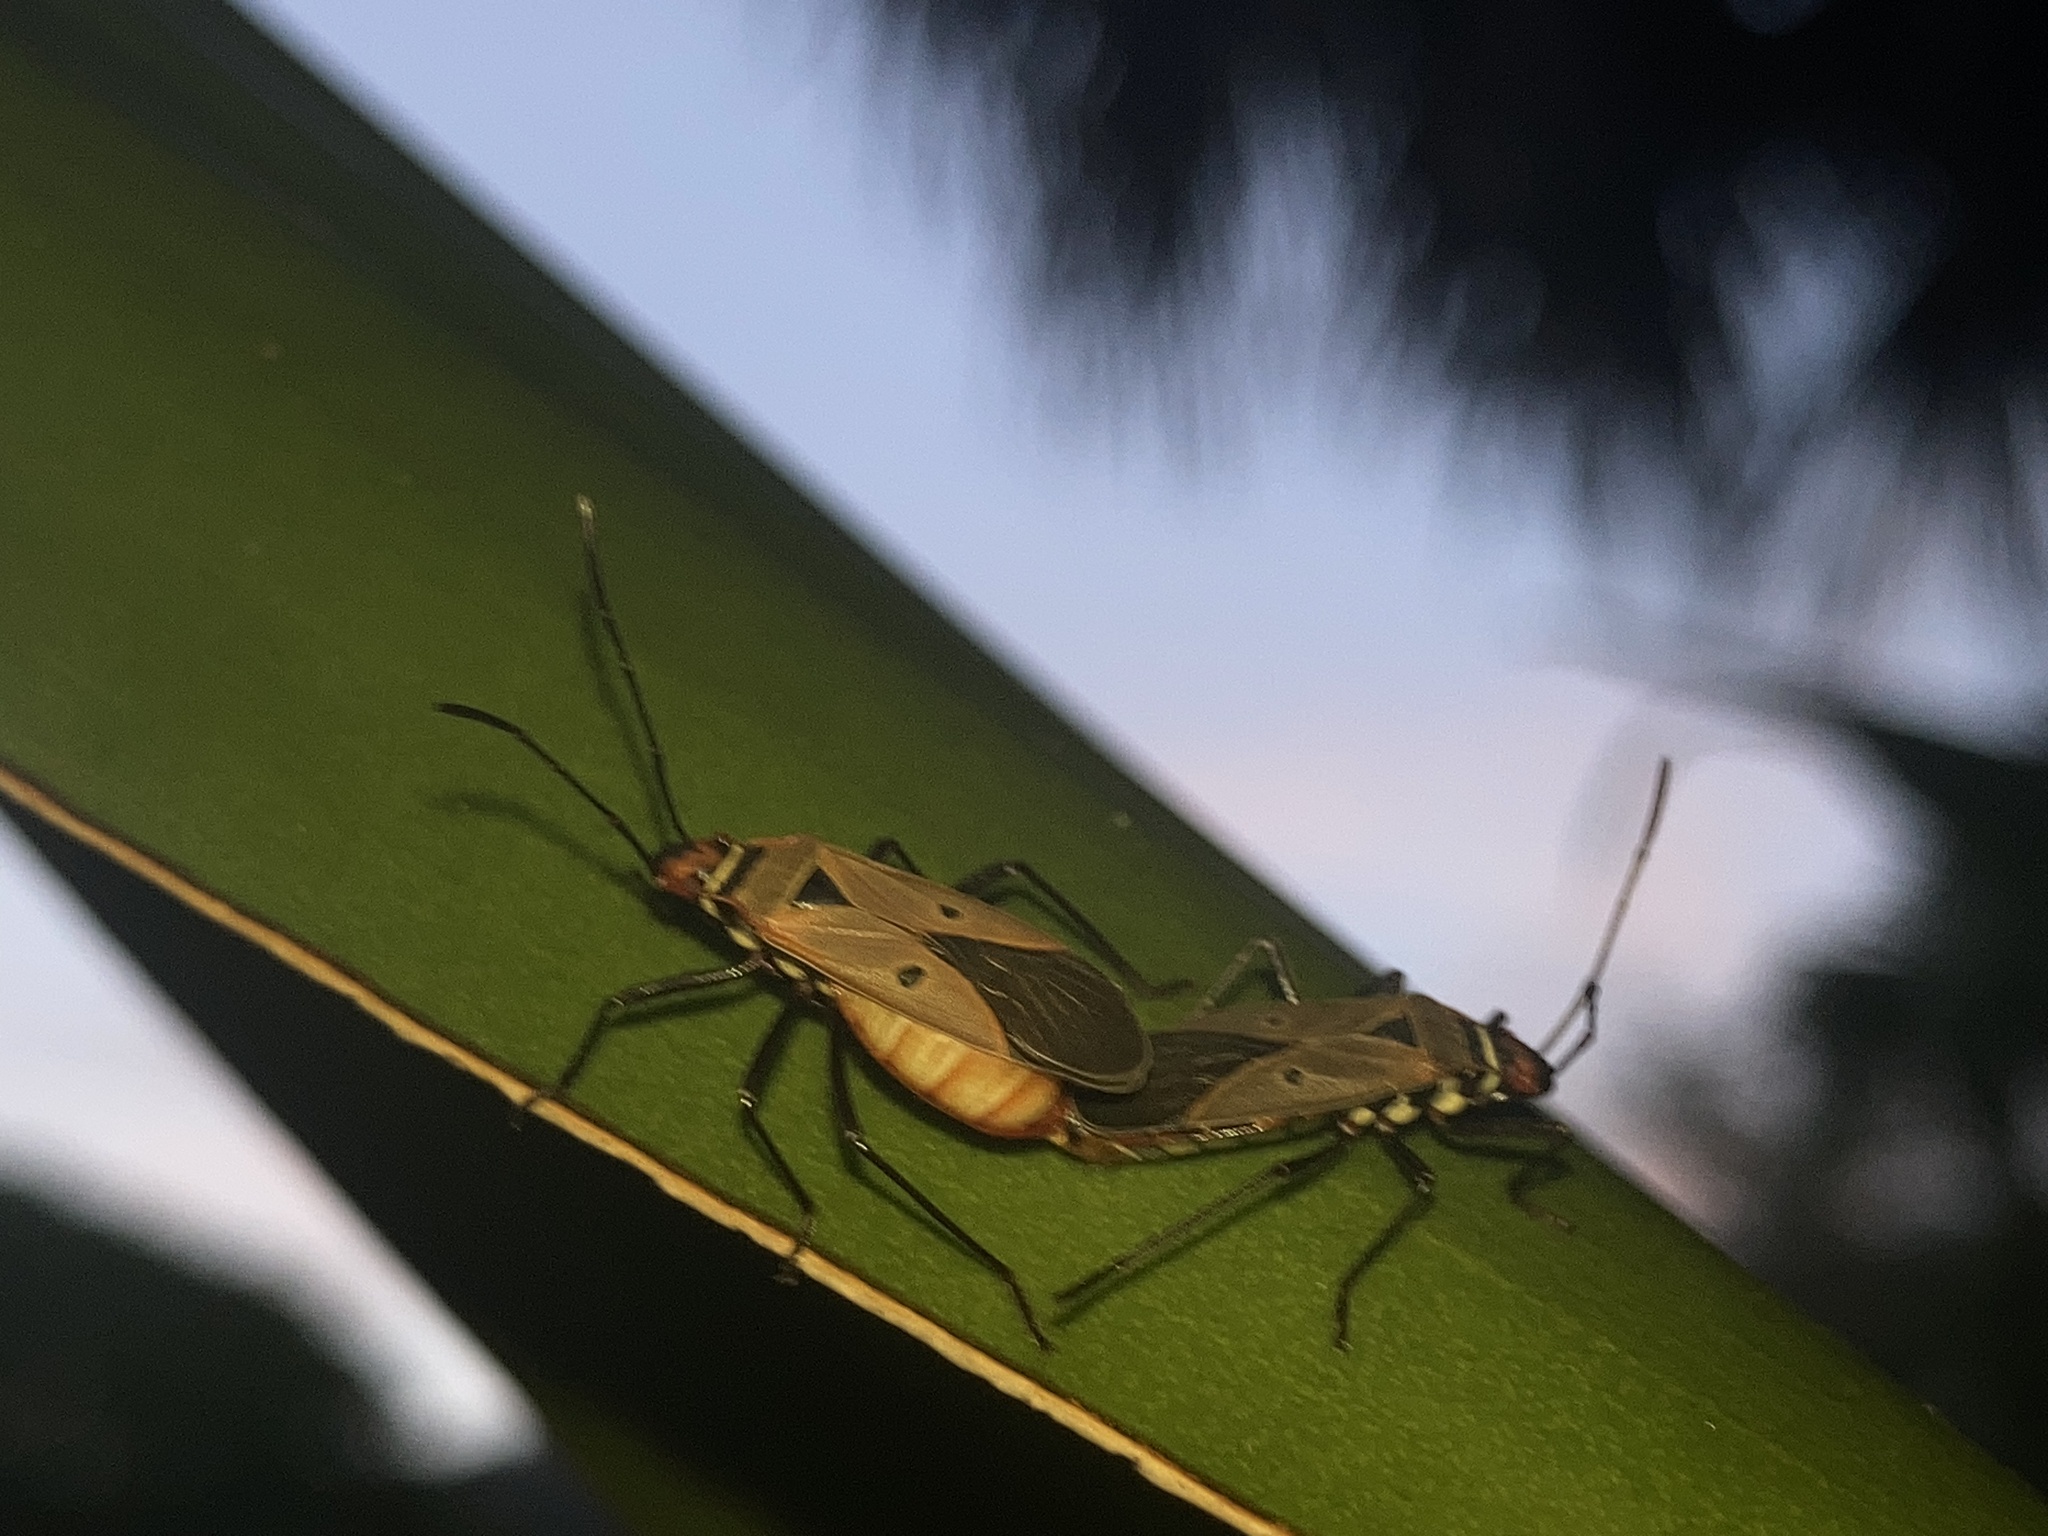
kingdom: Animalia
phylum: Arthropoda
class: Insecta
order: Hemiptera
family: Pyrrhocoridae
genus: Dysdercus
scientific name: Dysdercus sidae
